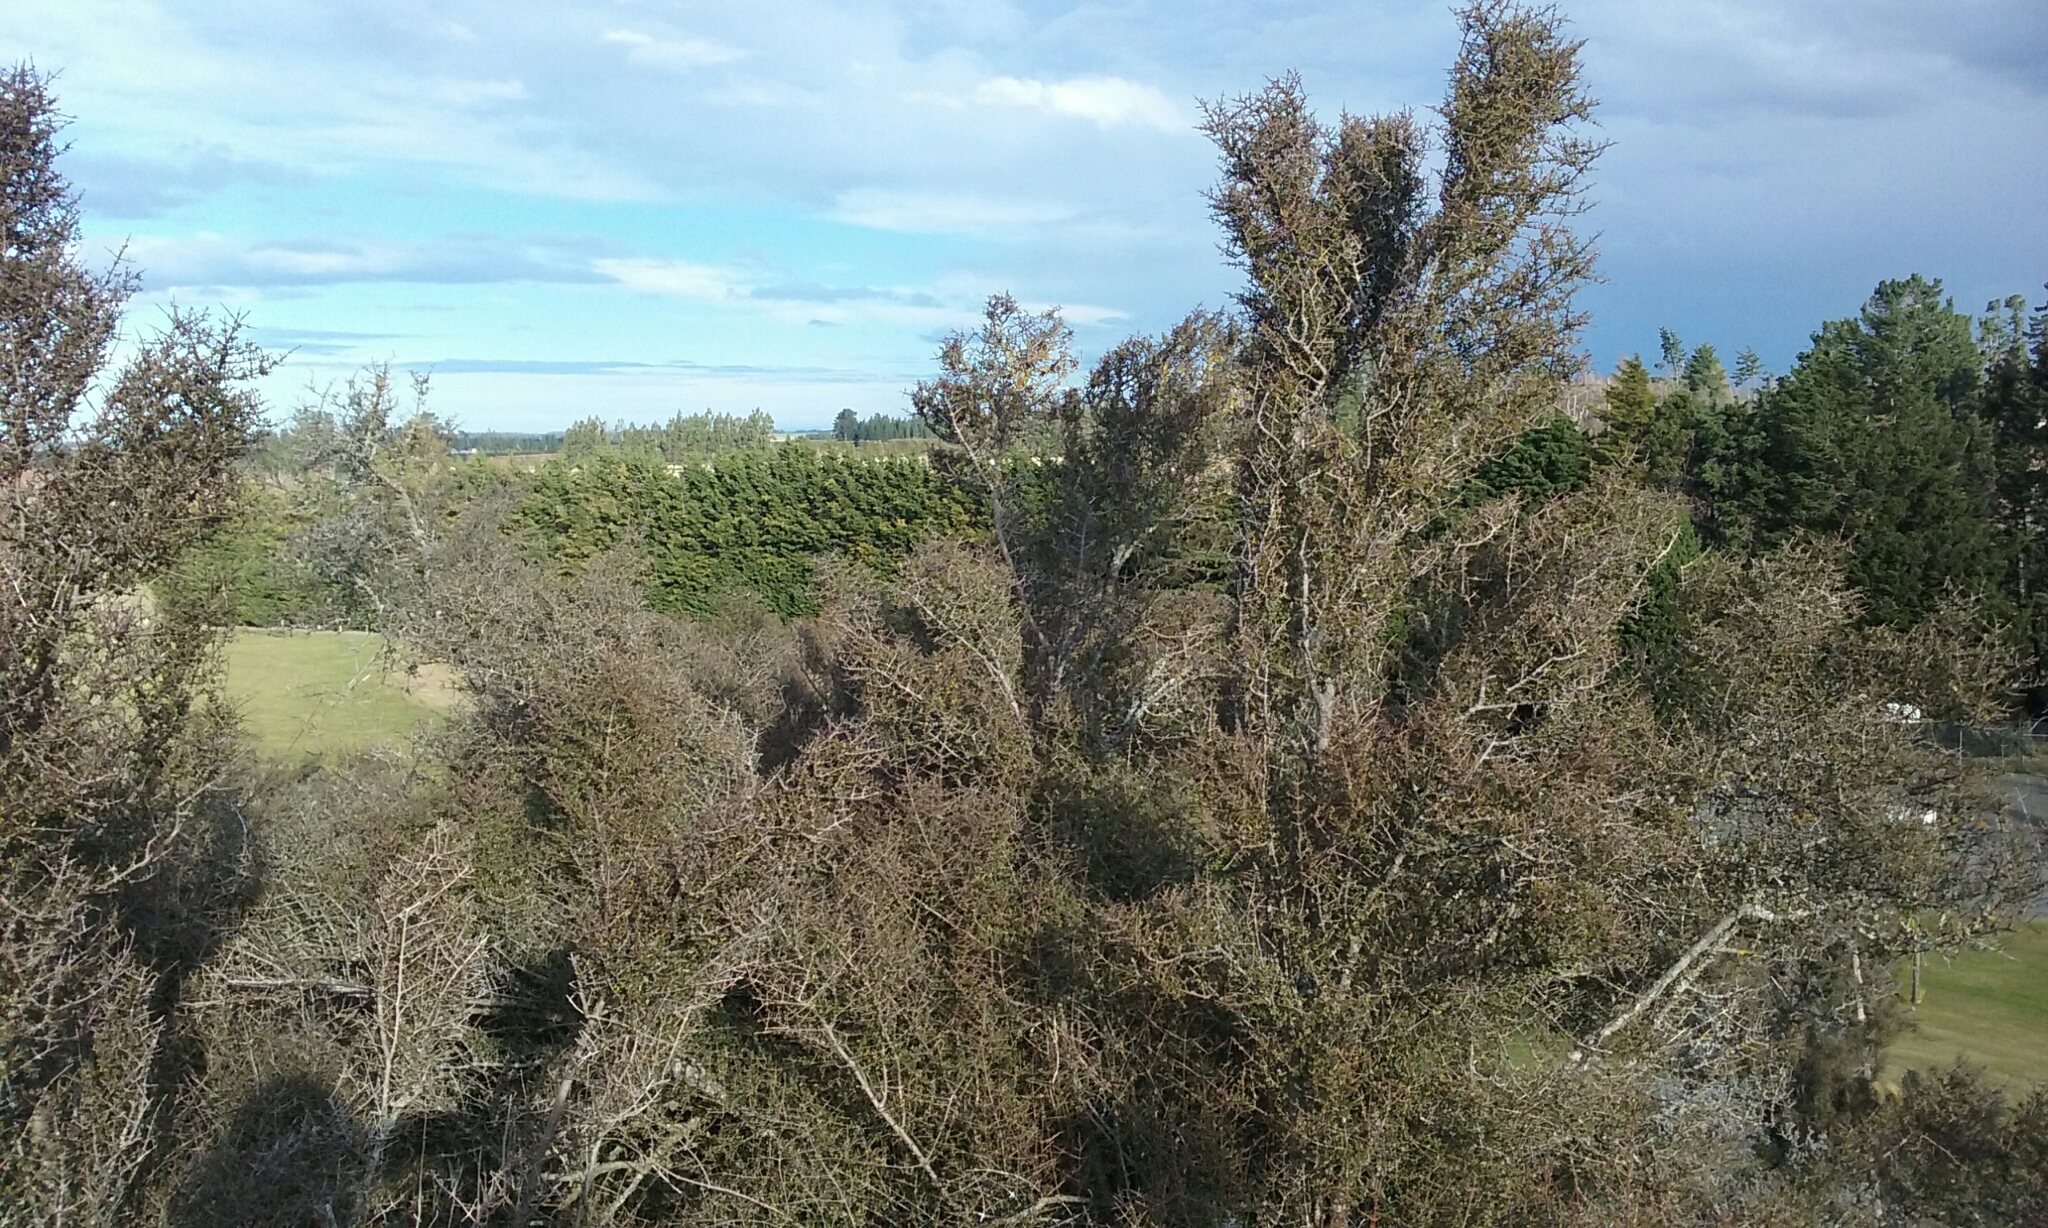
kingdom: Plantae
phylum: Tracheophyta
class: Magnoliopsida
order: Gentianales
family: Rubiaceae
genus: Coprosma
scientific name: Coprosma propinqua
